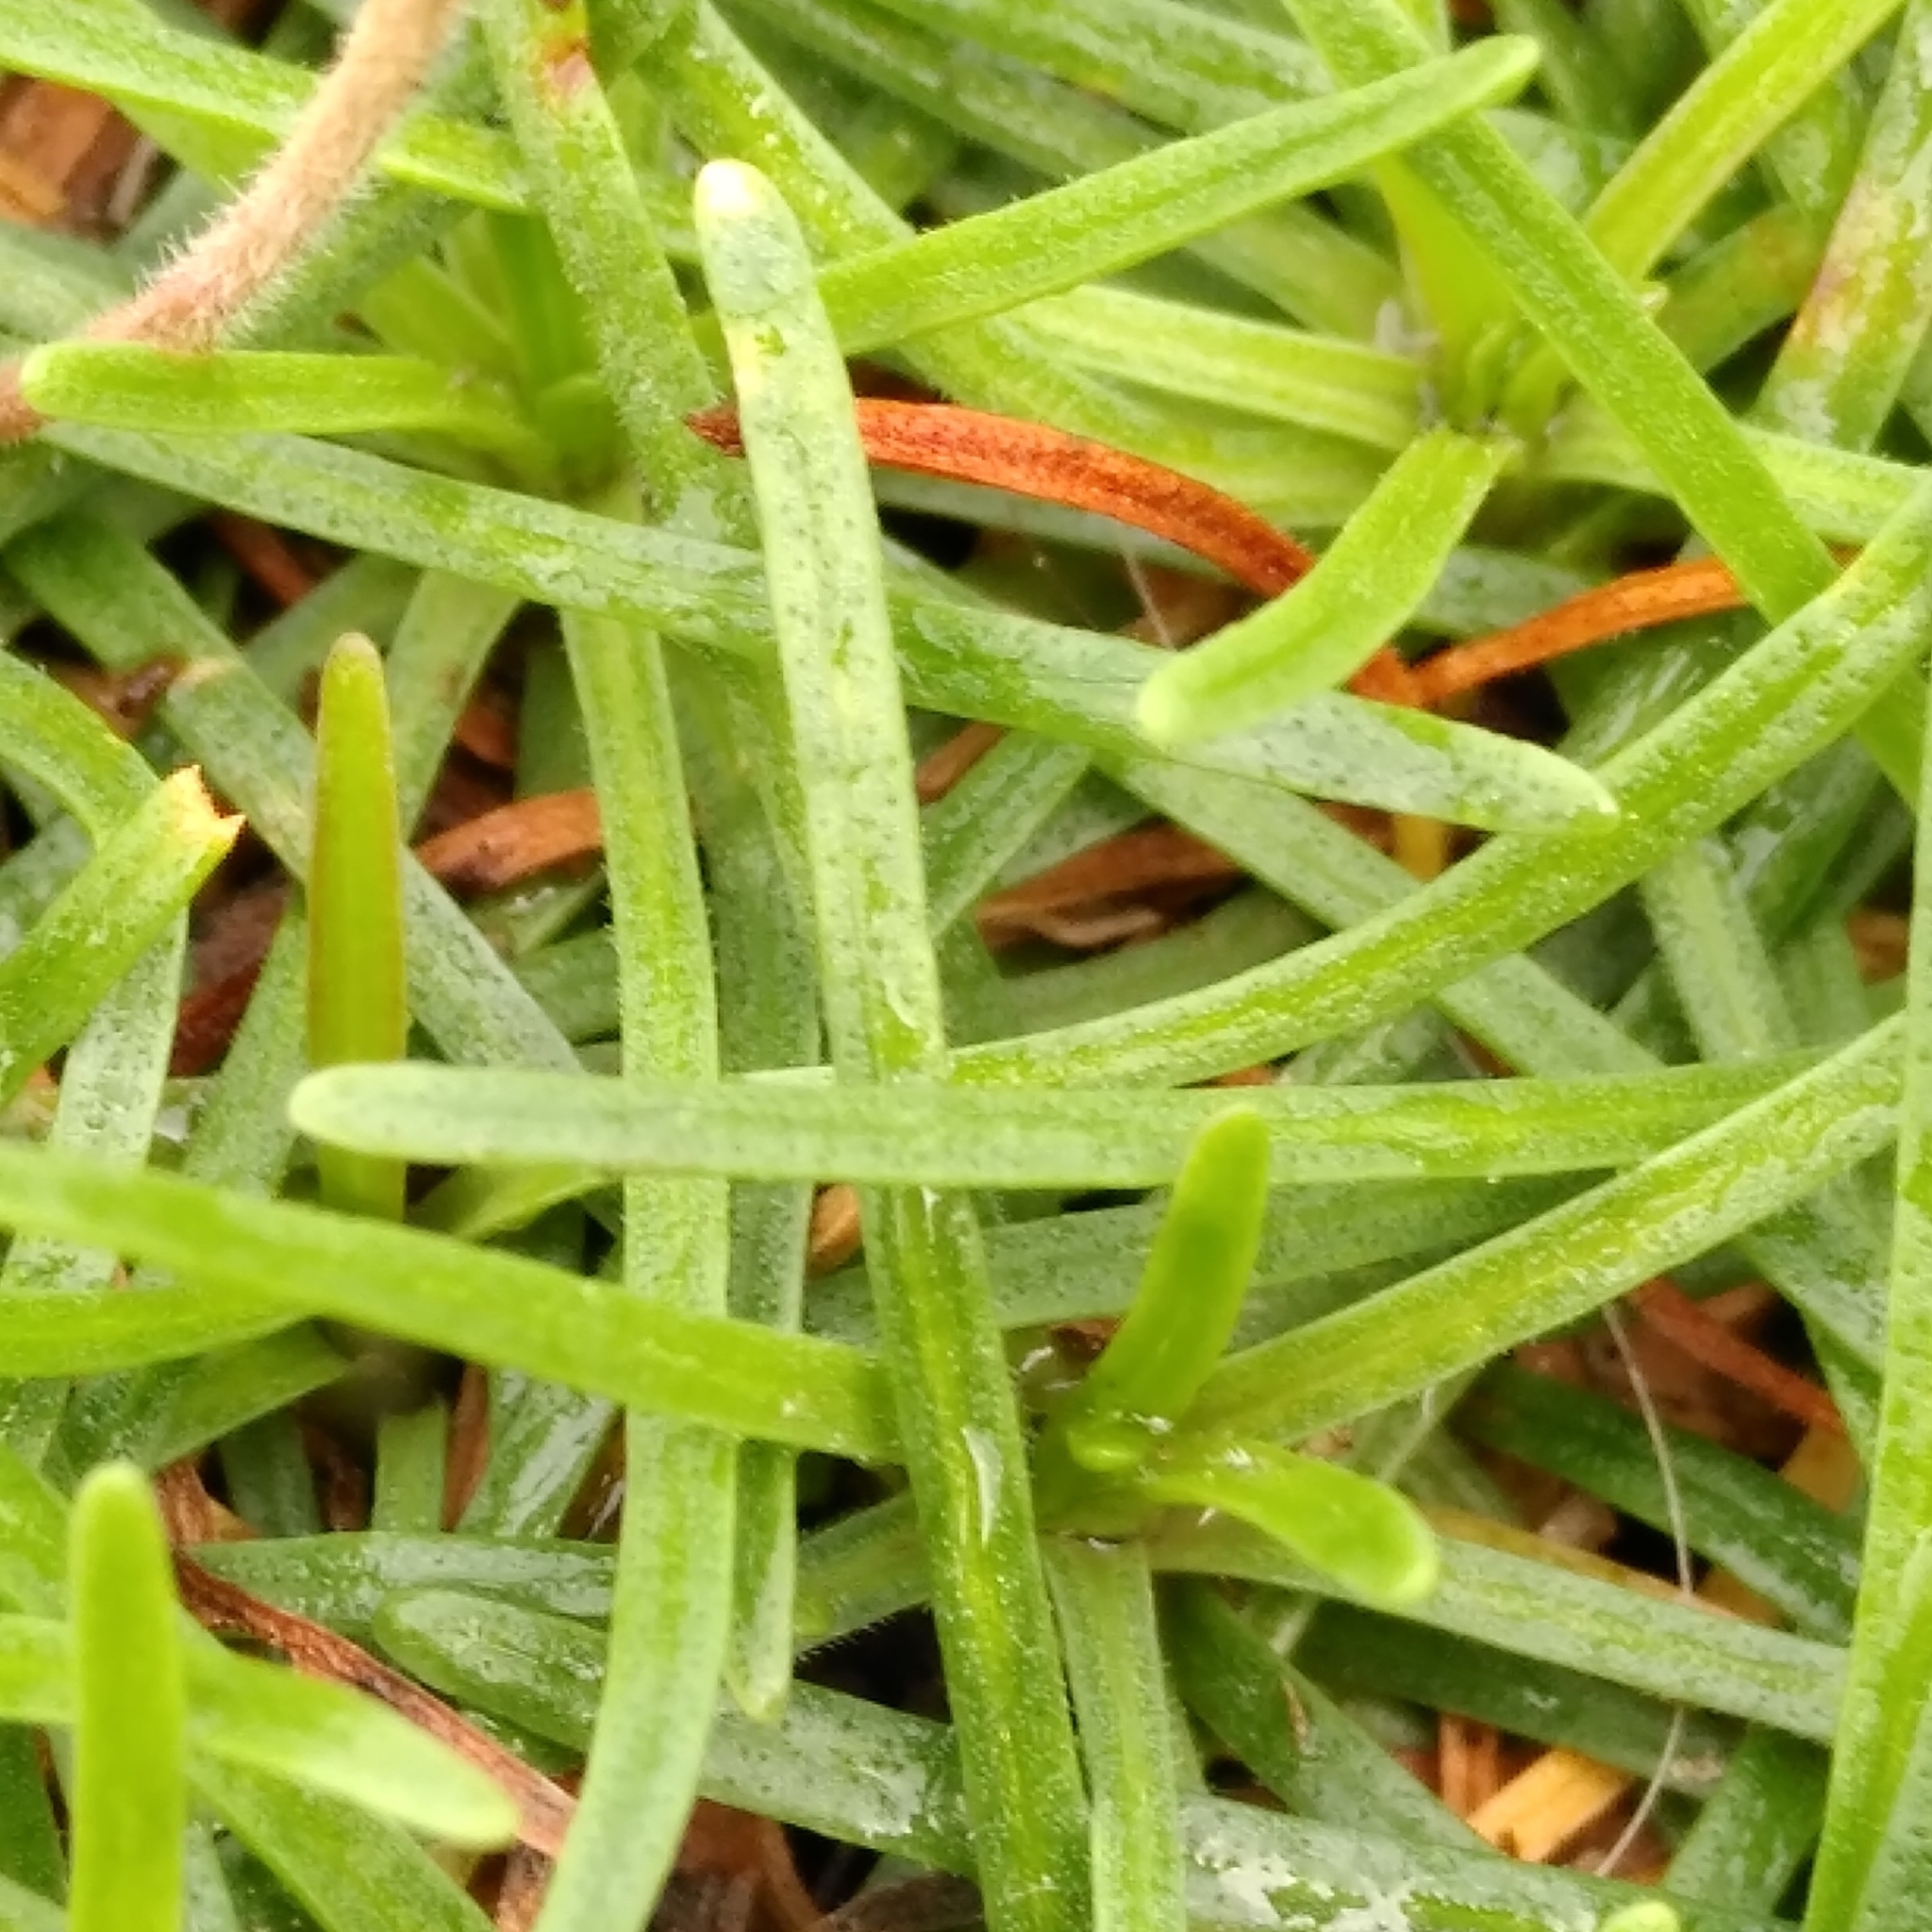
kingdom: Plantae
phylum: Tracheophyta
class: Magnoliopsida
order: Caryophyllales
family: Plumbaginaceae
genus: Armeria
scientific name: Armeria maritima
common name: Thrift
